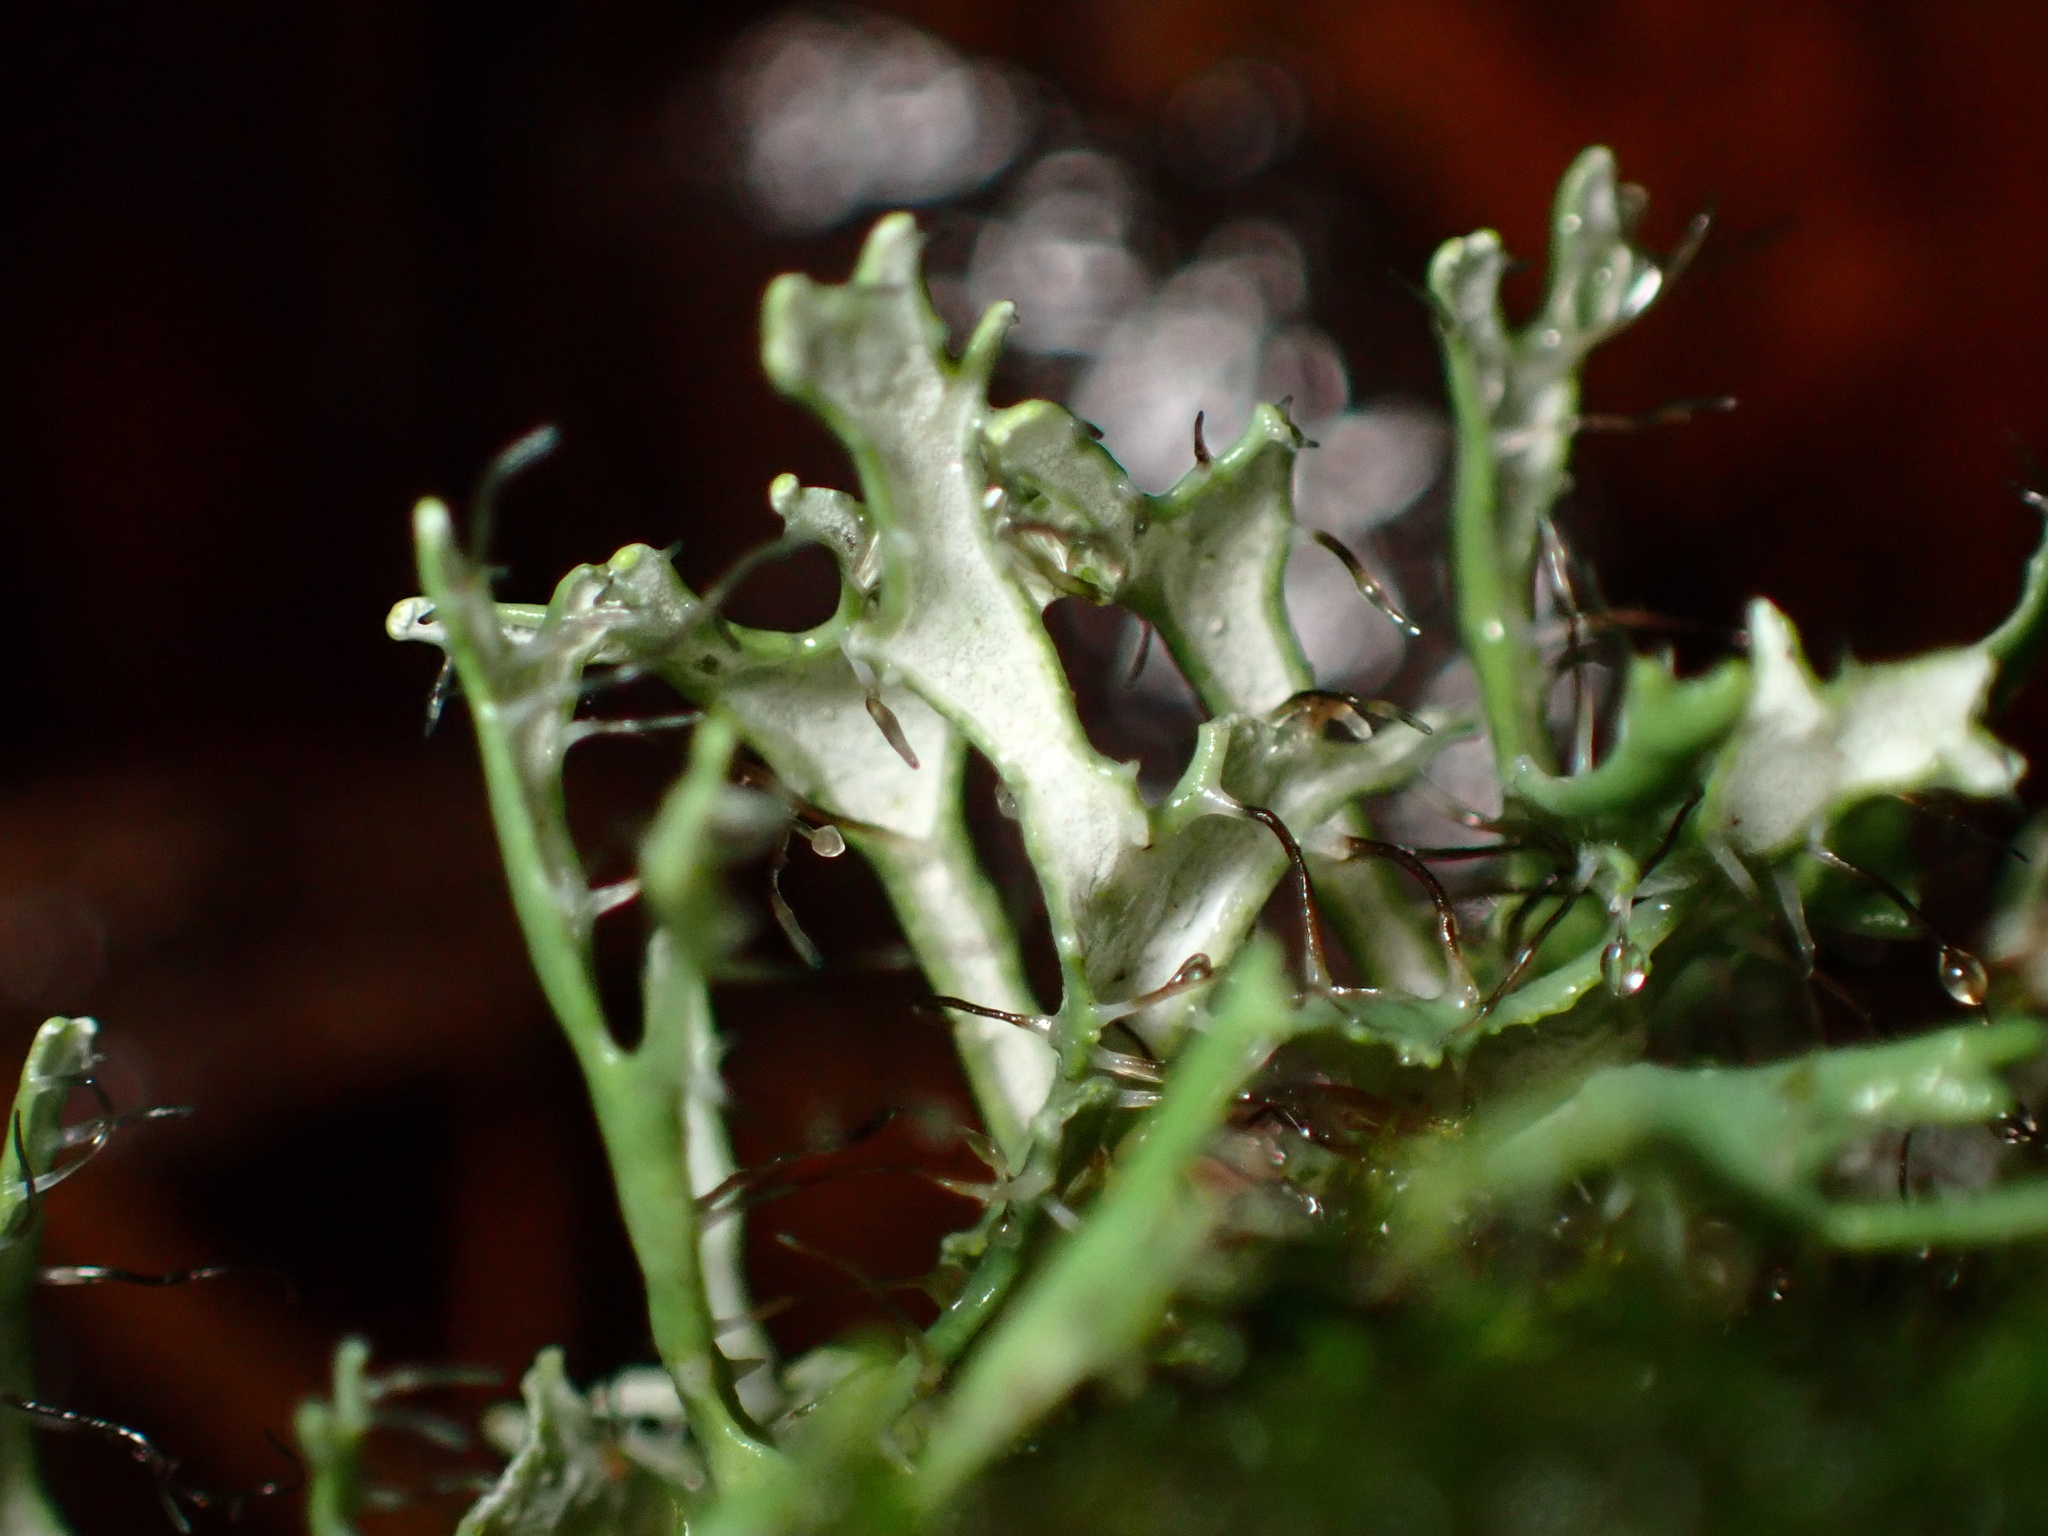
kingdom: Fungi
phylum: Ascomycota
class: Lecanoromycetes
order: Caliciales
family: Physciaceae
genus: Leucodermia
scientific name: Leucodermia leucomelos
